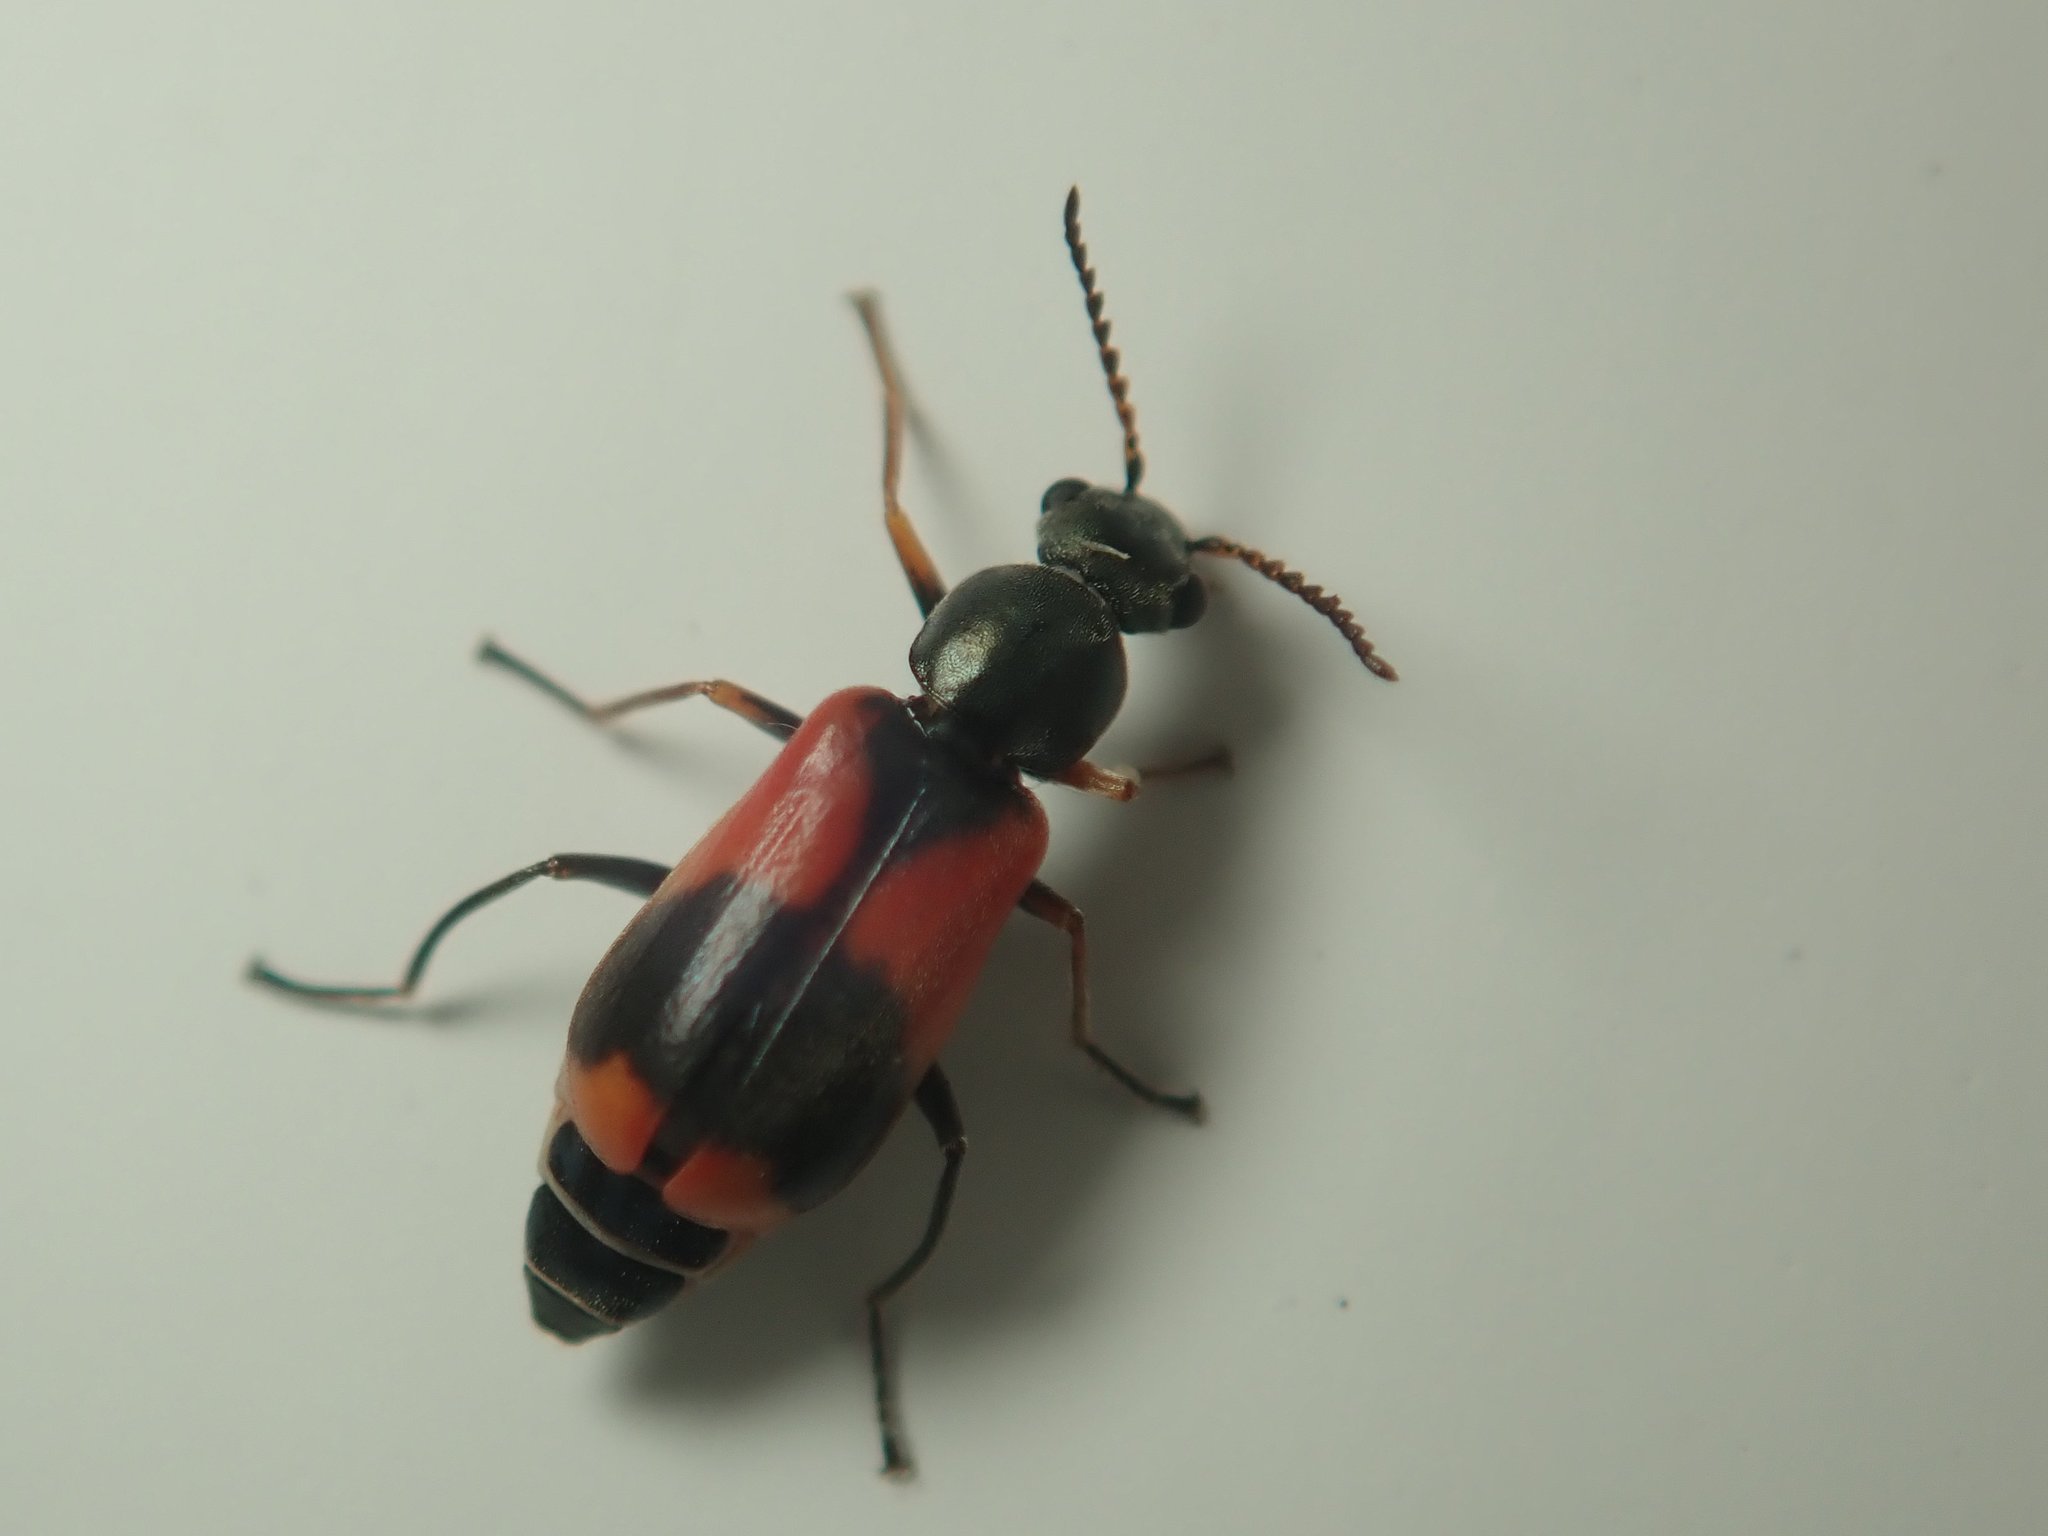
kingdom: Animalia
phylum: Arthropoda
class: Insecta
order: Coleoptera
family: Melyridae
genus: Anthocomus
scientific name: Anthocomus equestris
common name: Black-banded soft-winged flower beetle
